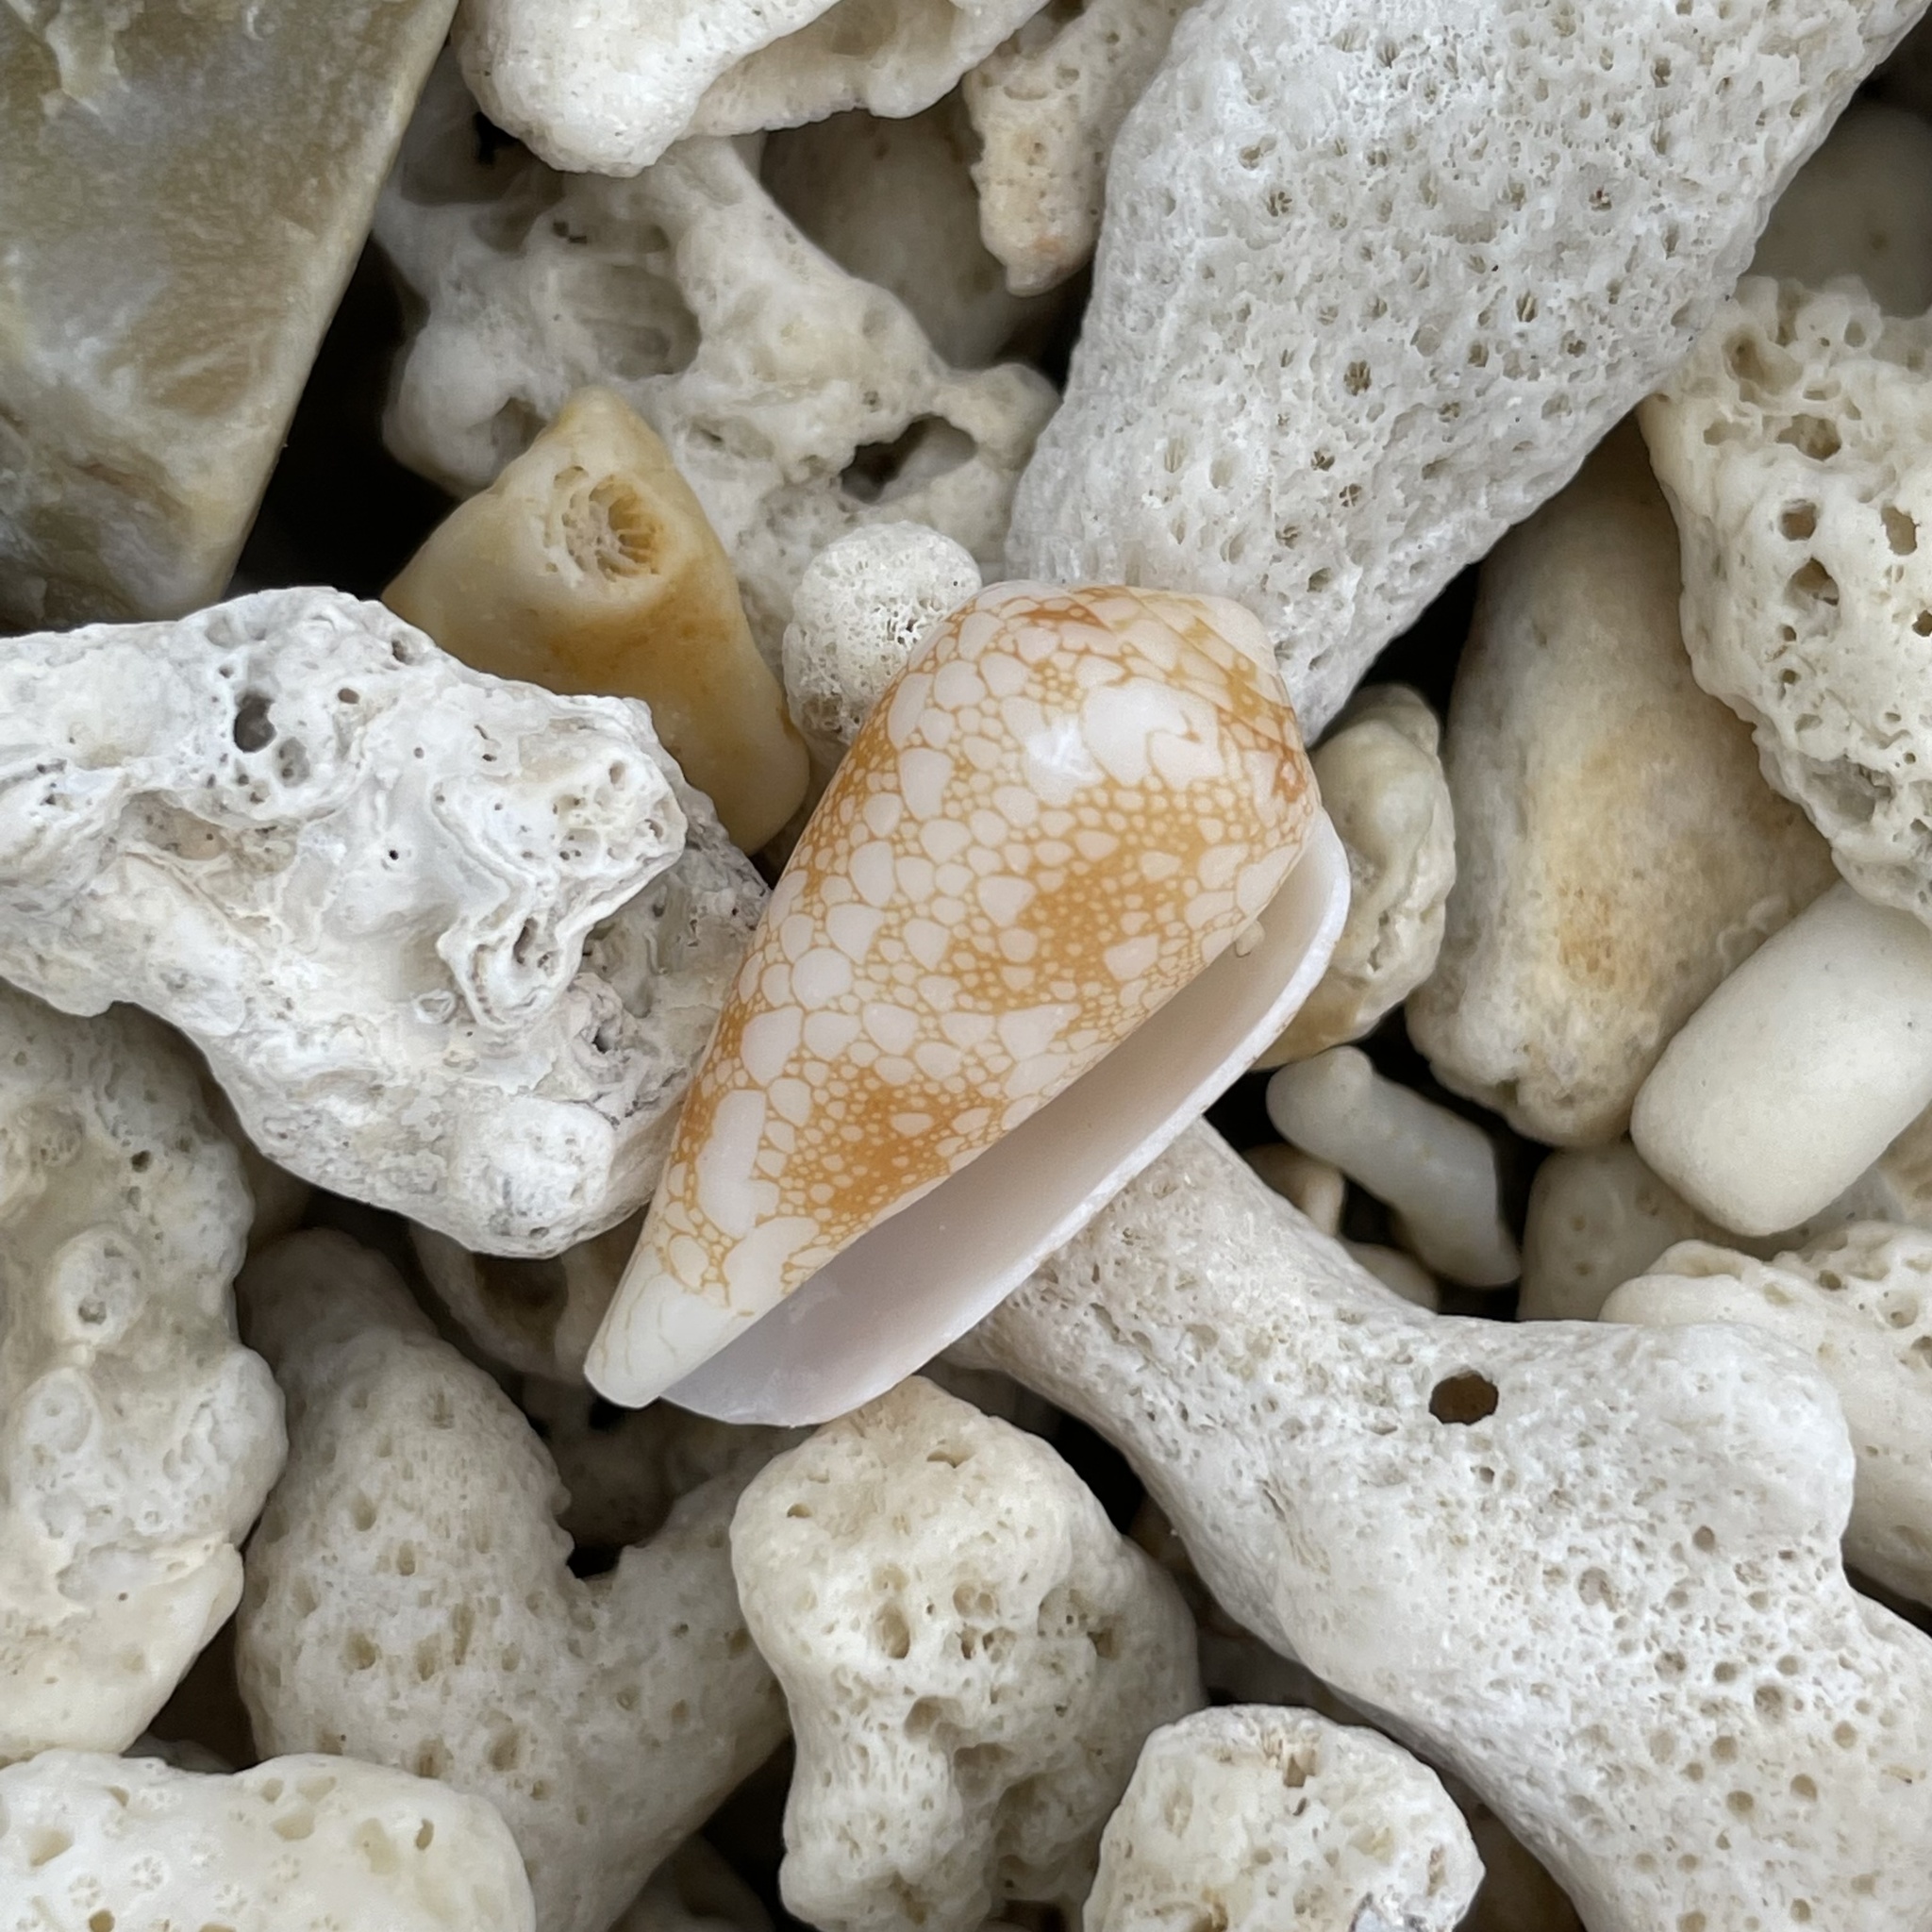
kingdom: Animalia
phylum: Mollusca
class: Gastropoda
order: Neogastropoda
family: Conidae
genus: Conus
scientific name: Conus omaria
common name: Omaria cone
